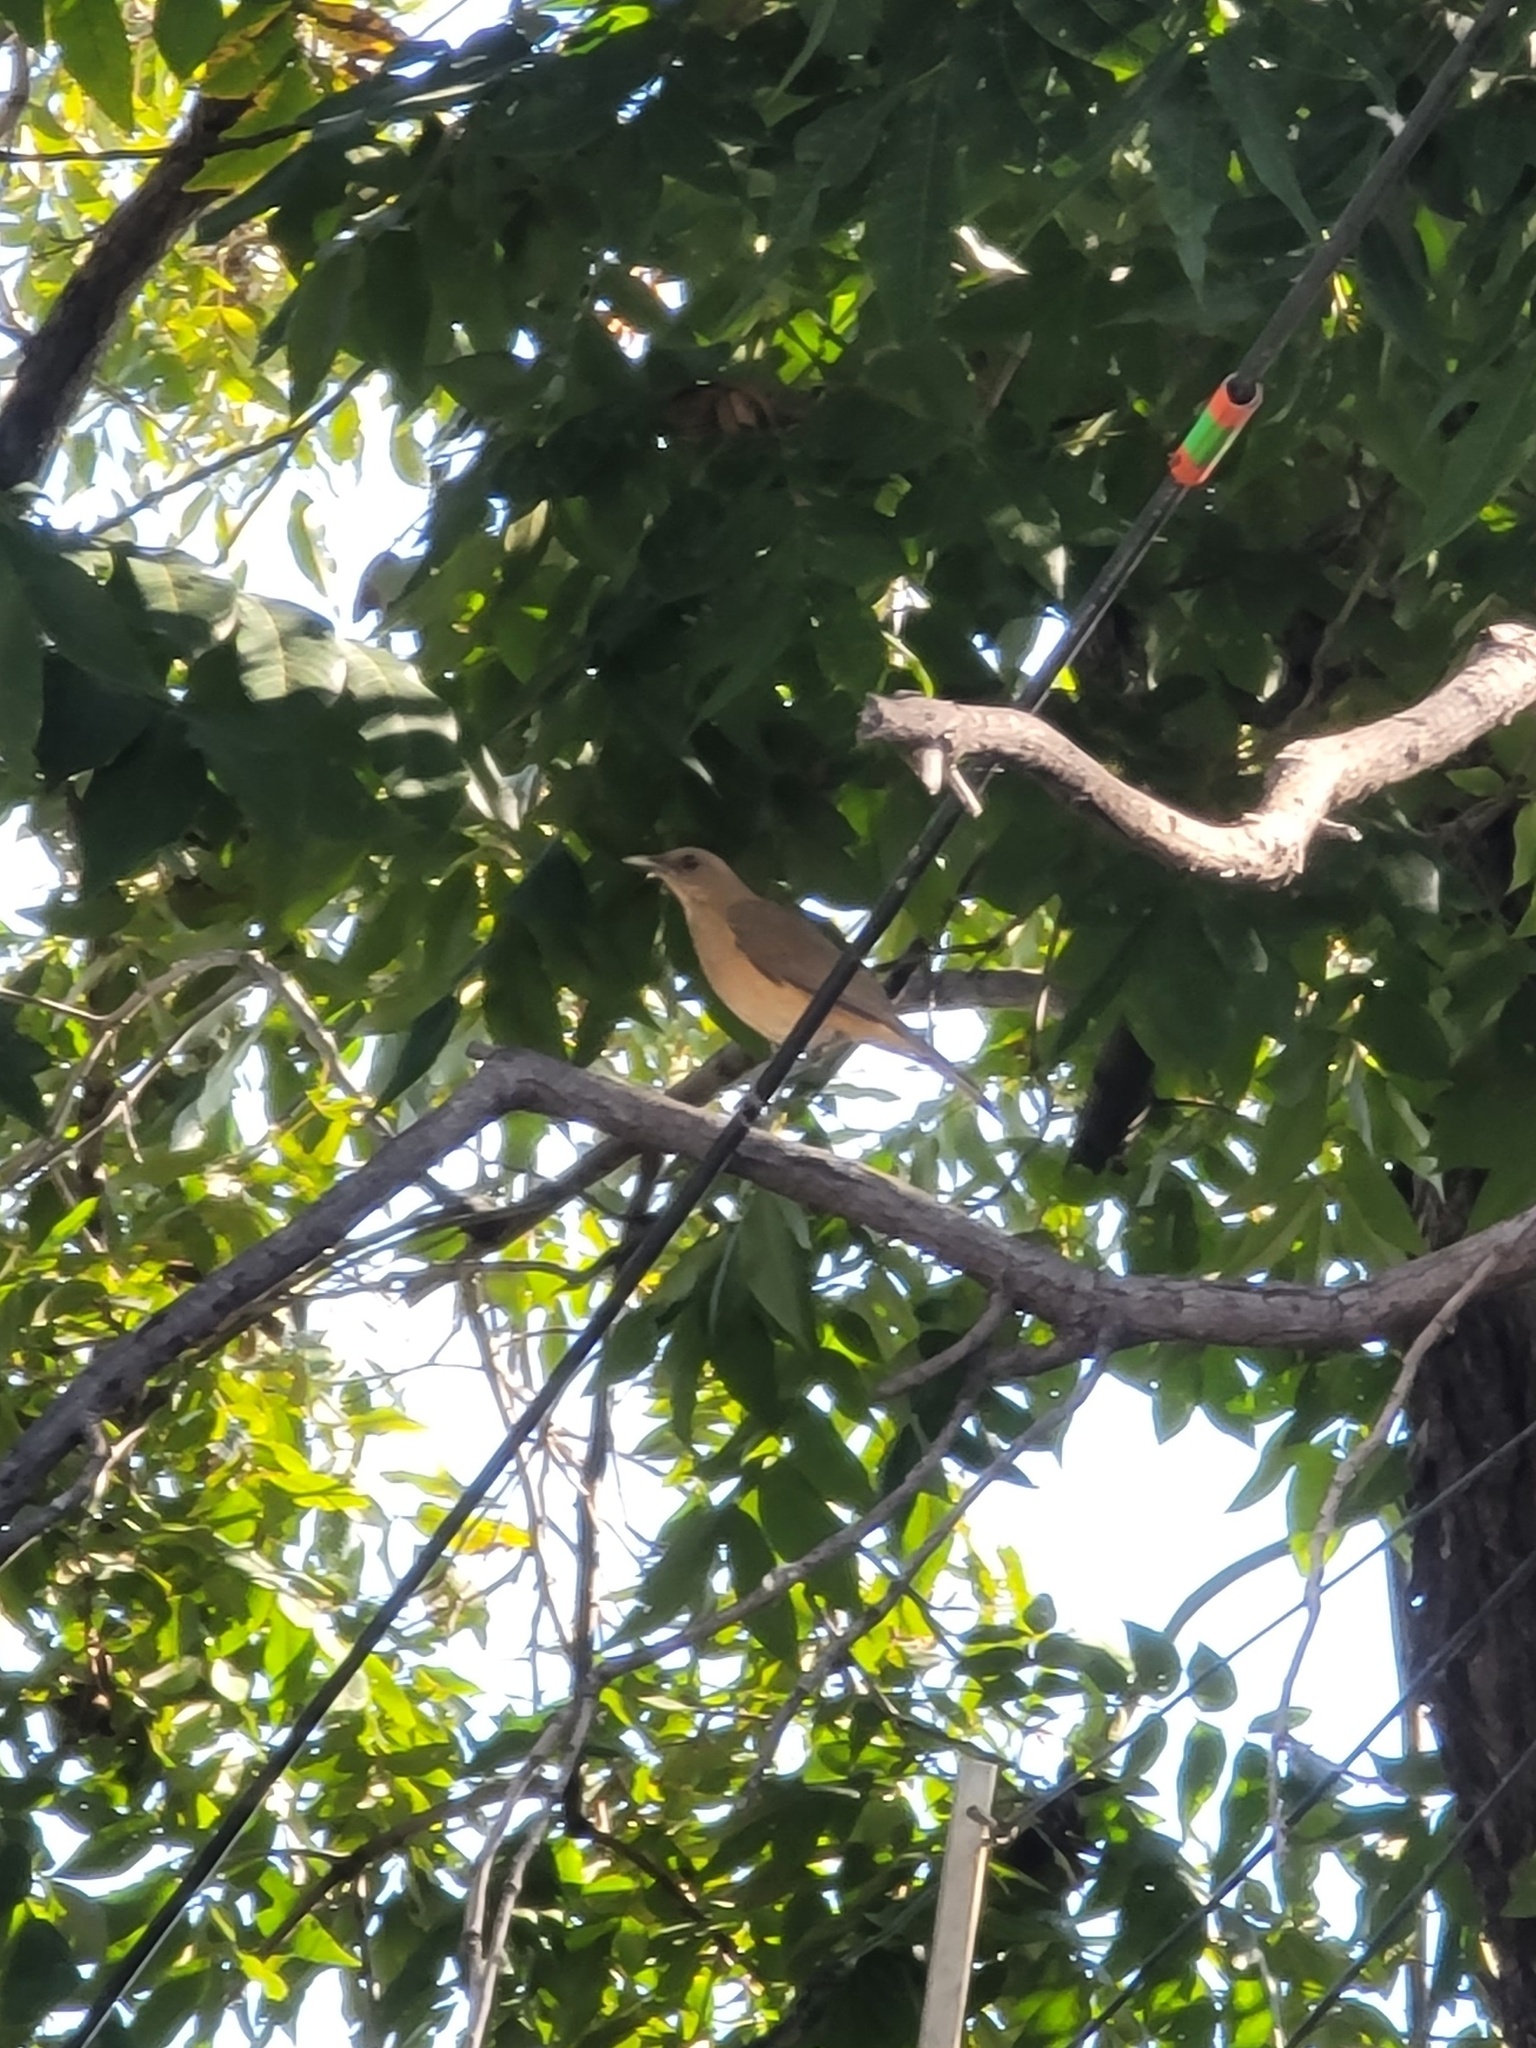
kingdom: Animalia
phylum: Chordata
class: Aves
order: Passeriformes
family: Turdidae
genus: Turdus
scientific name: Turdus grayi
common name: Clay-colored thrush
